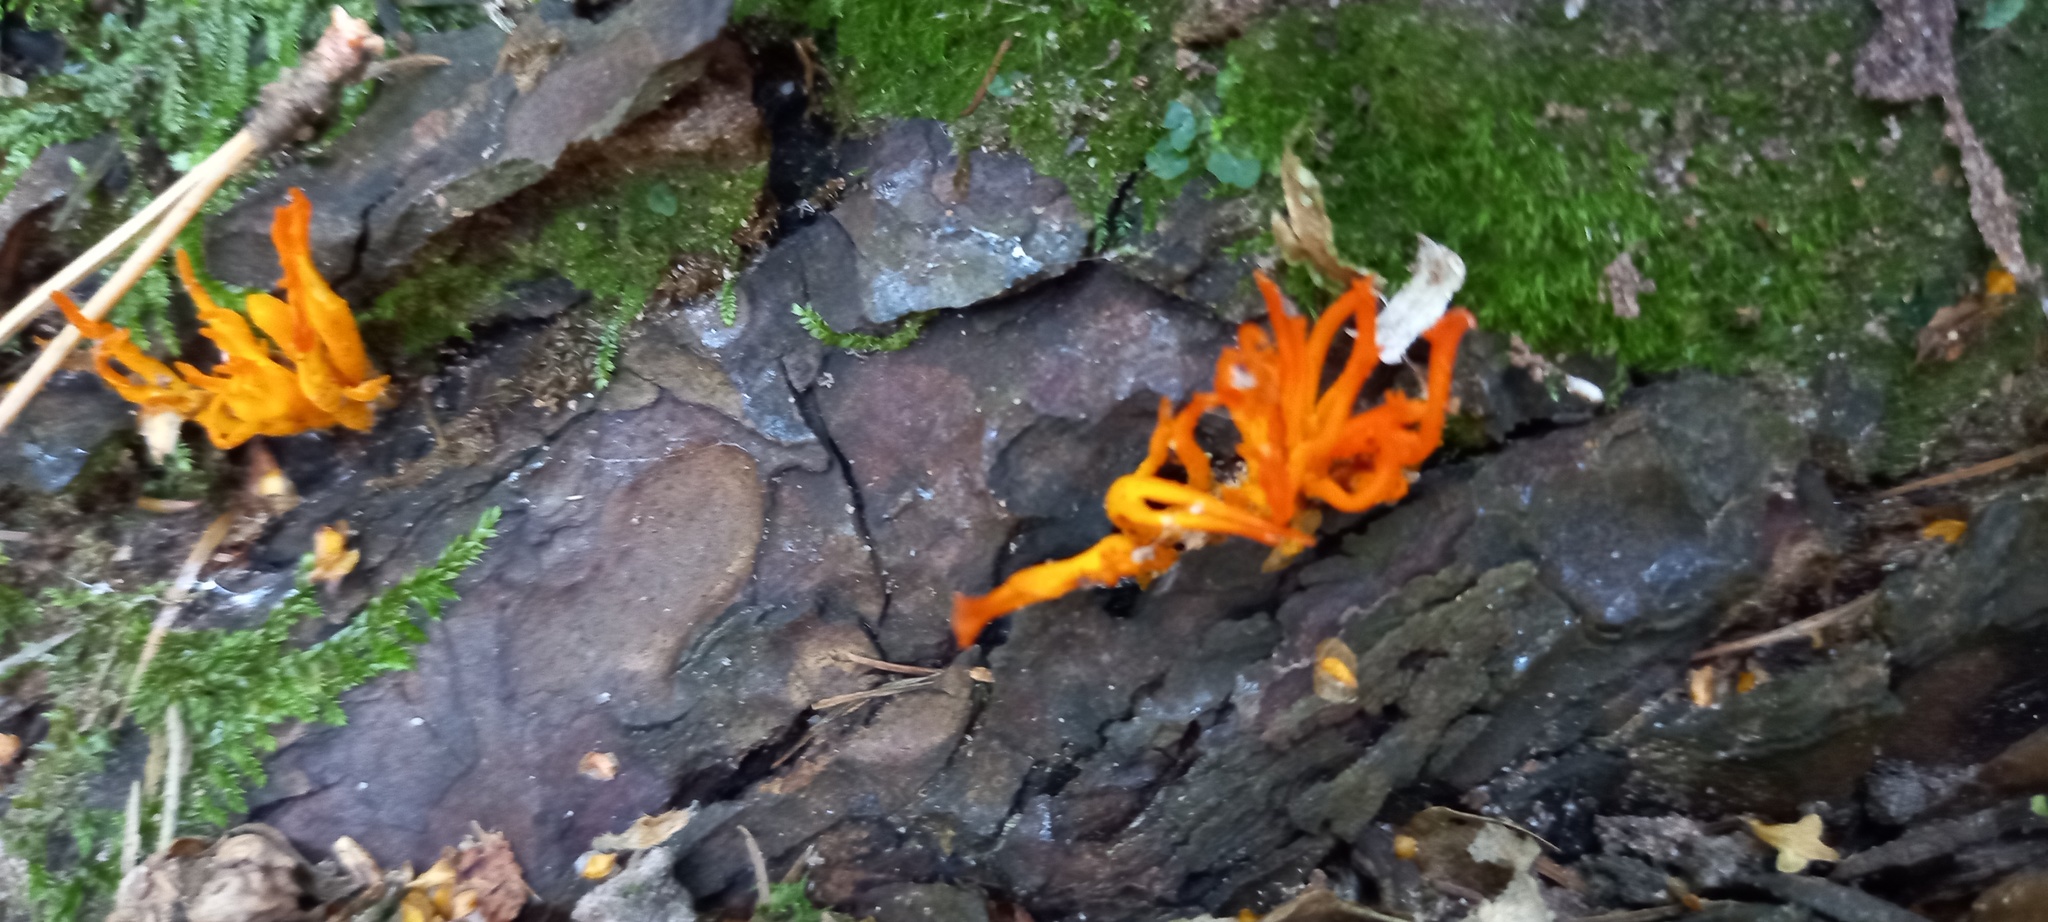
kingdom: Fungi
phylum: Basidiomycota
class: Dacrymycetes
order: Dacrymycetales
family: Dacrymycetaceae
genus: Calocera
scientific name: Calocera viscosa
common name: Yellow stagshorn
